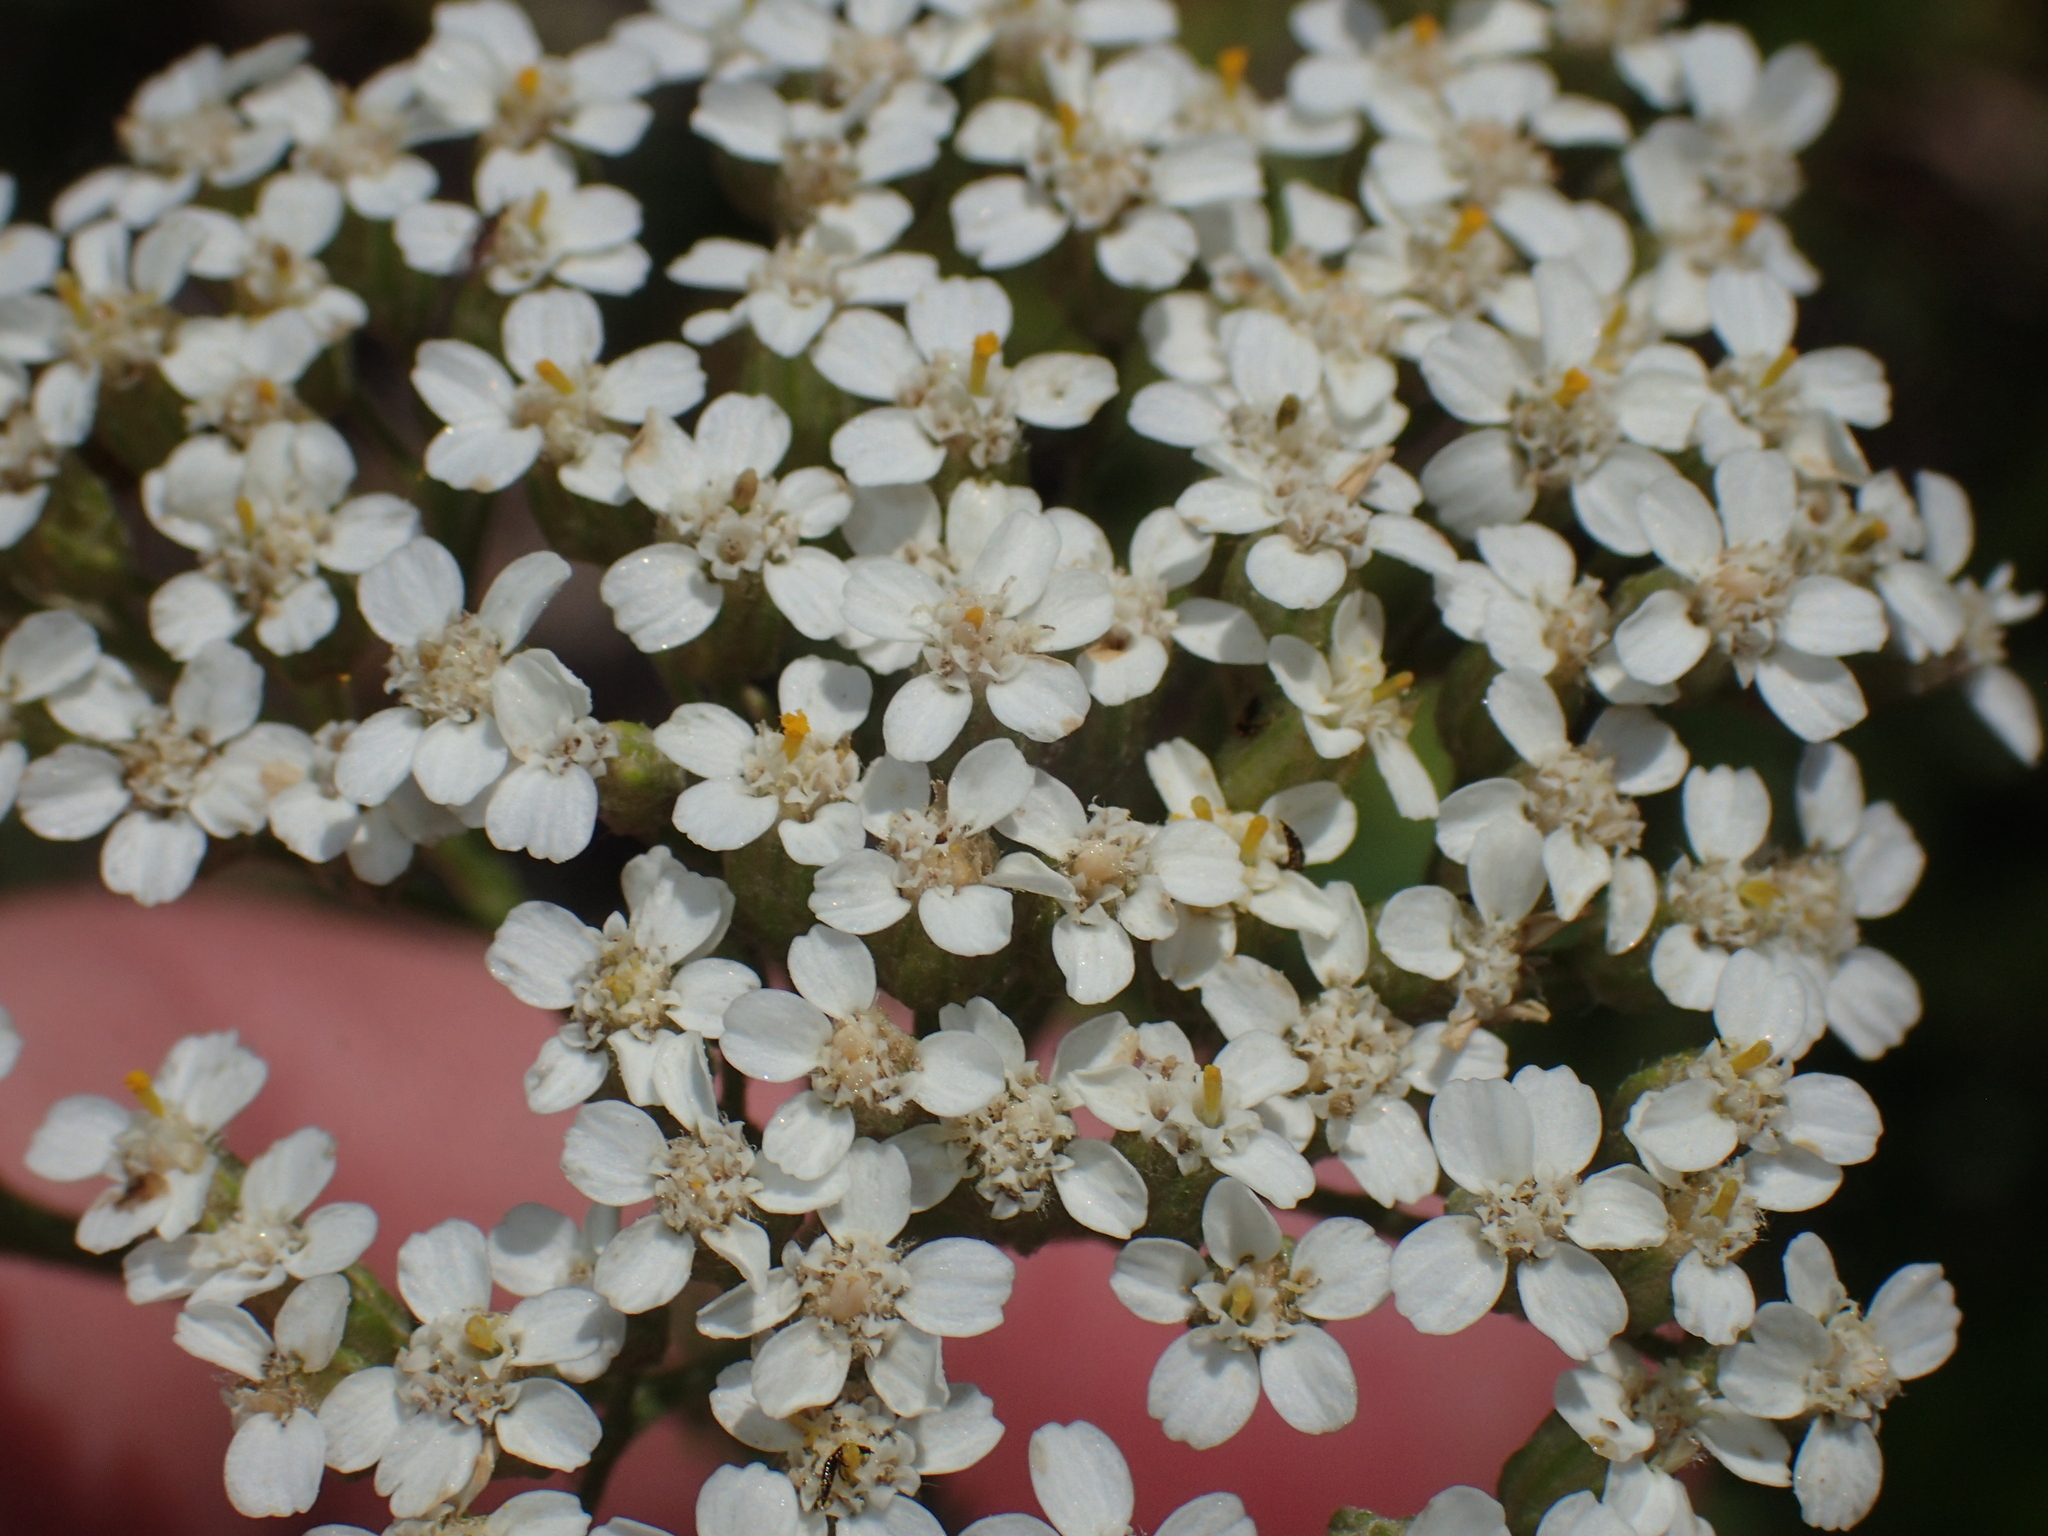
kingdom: Plantae
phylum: Tracheophyta
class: Magnoliopsida
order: Asterales
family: Asteraceae
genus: Achillea
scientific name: Achillea millefolium
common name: Yarrow
